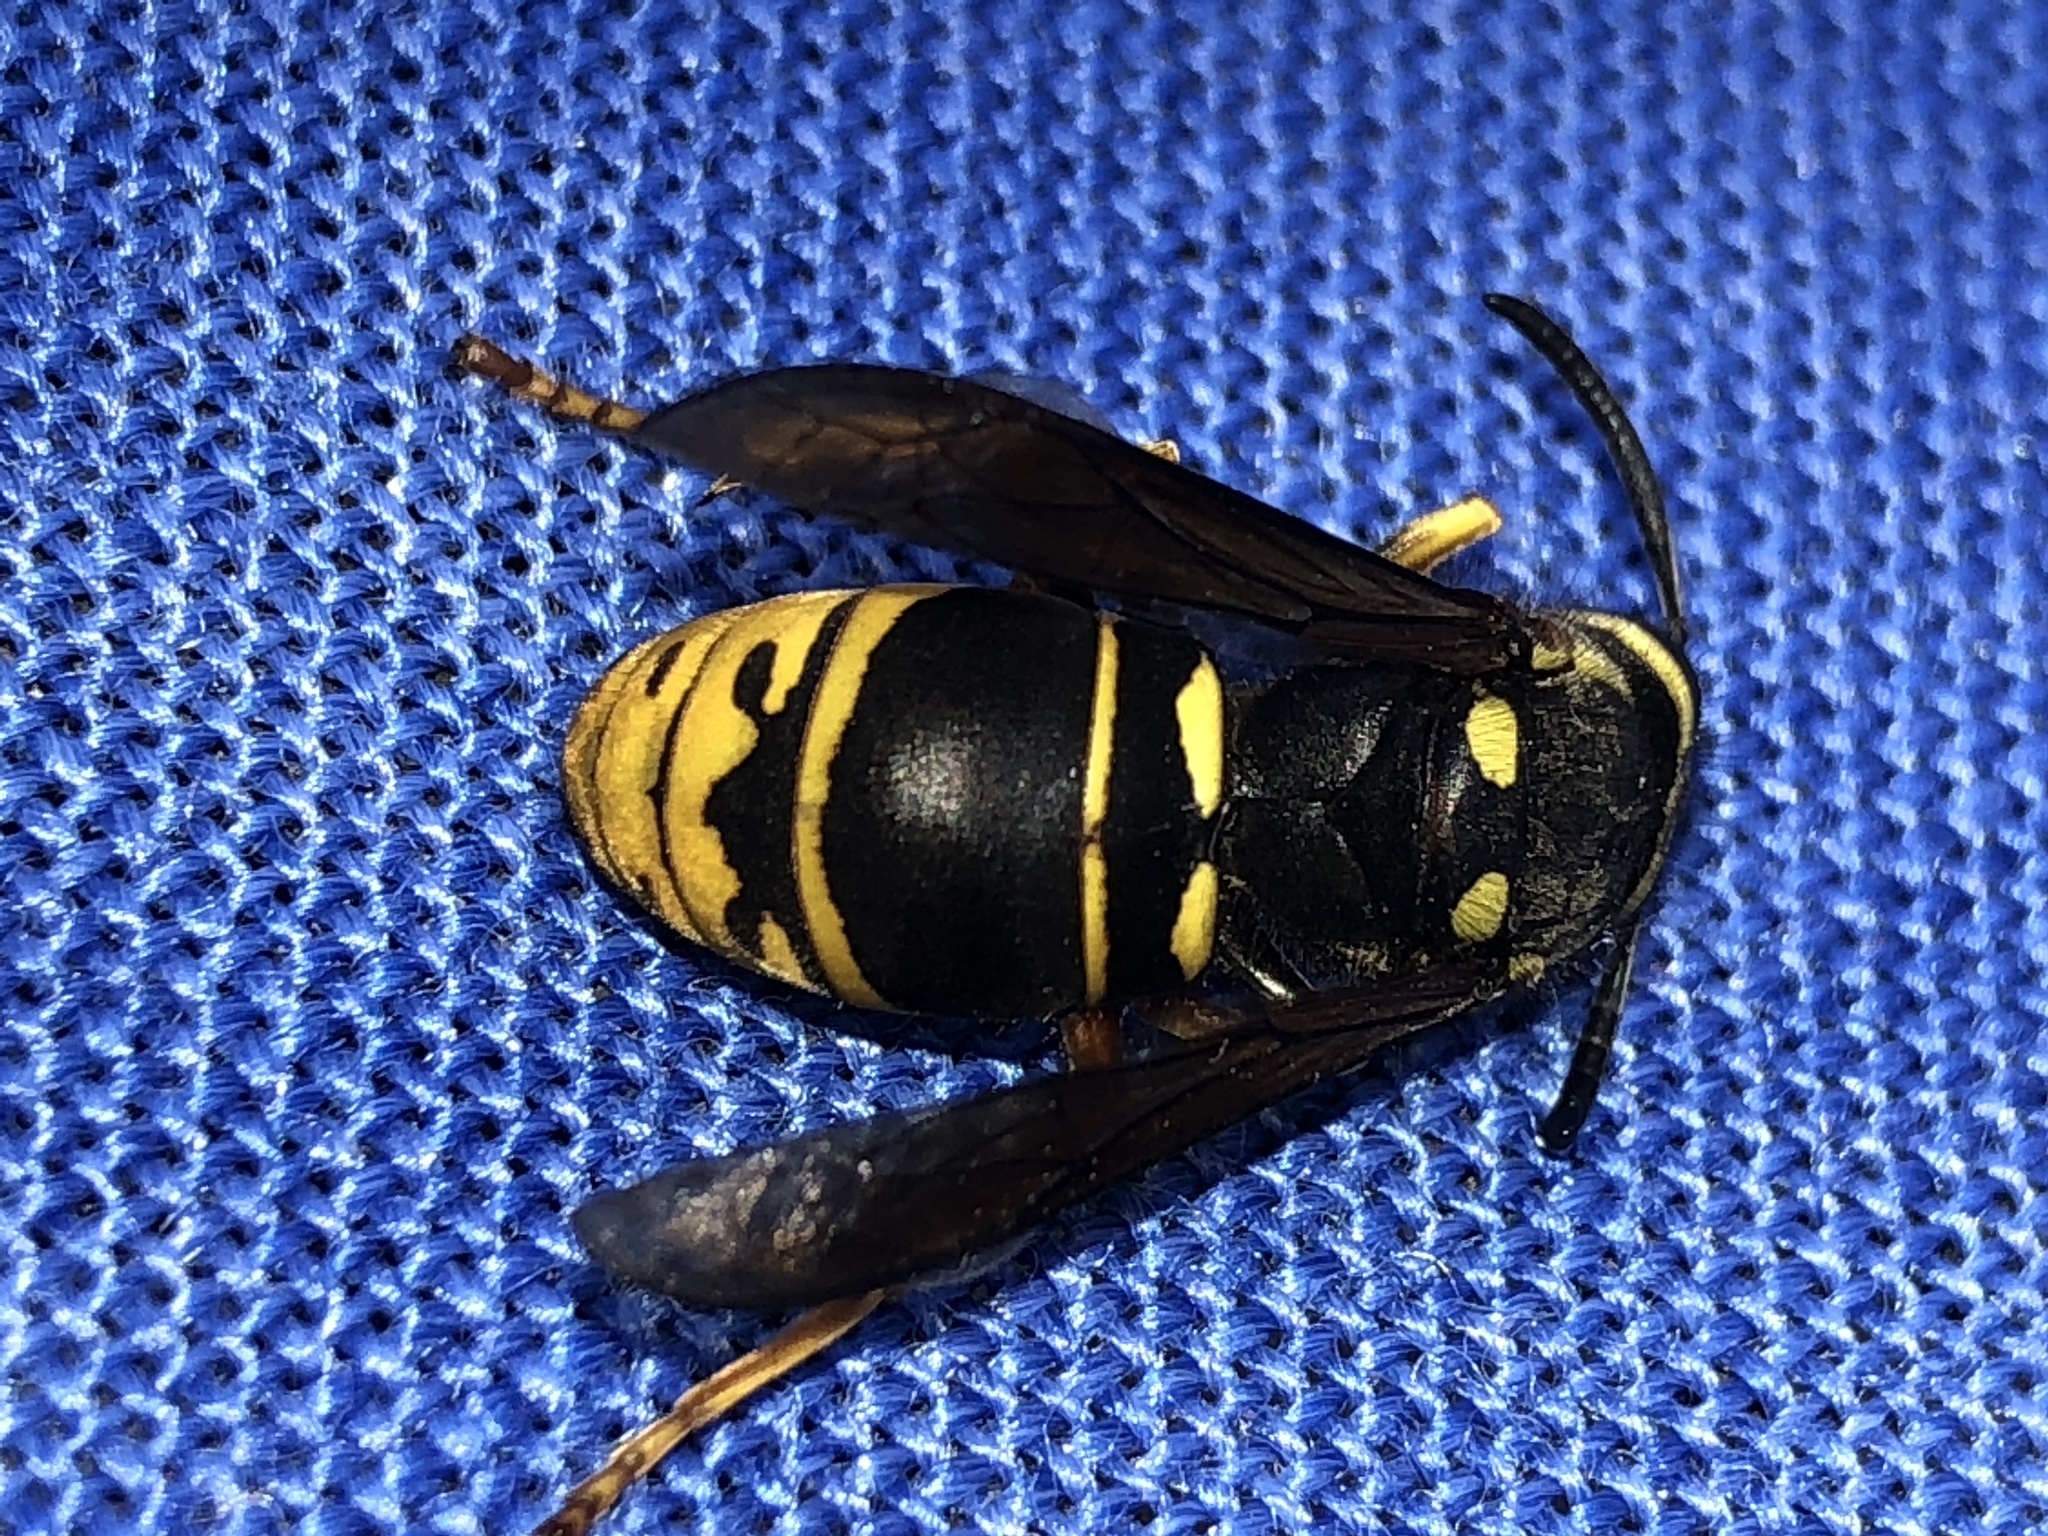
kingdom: Animalia
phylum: Arthropoda
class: Insecta
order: Hymenoptera
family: Vespidae
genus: Vespula
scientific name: Vespula vidua
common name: Widow yellowjacket
